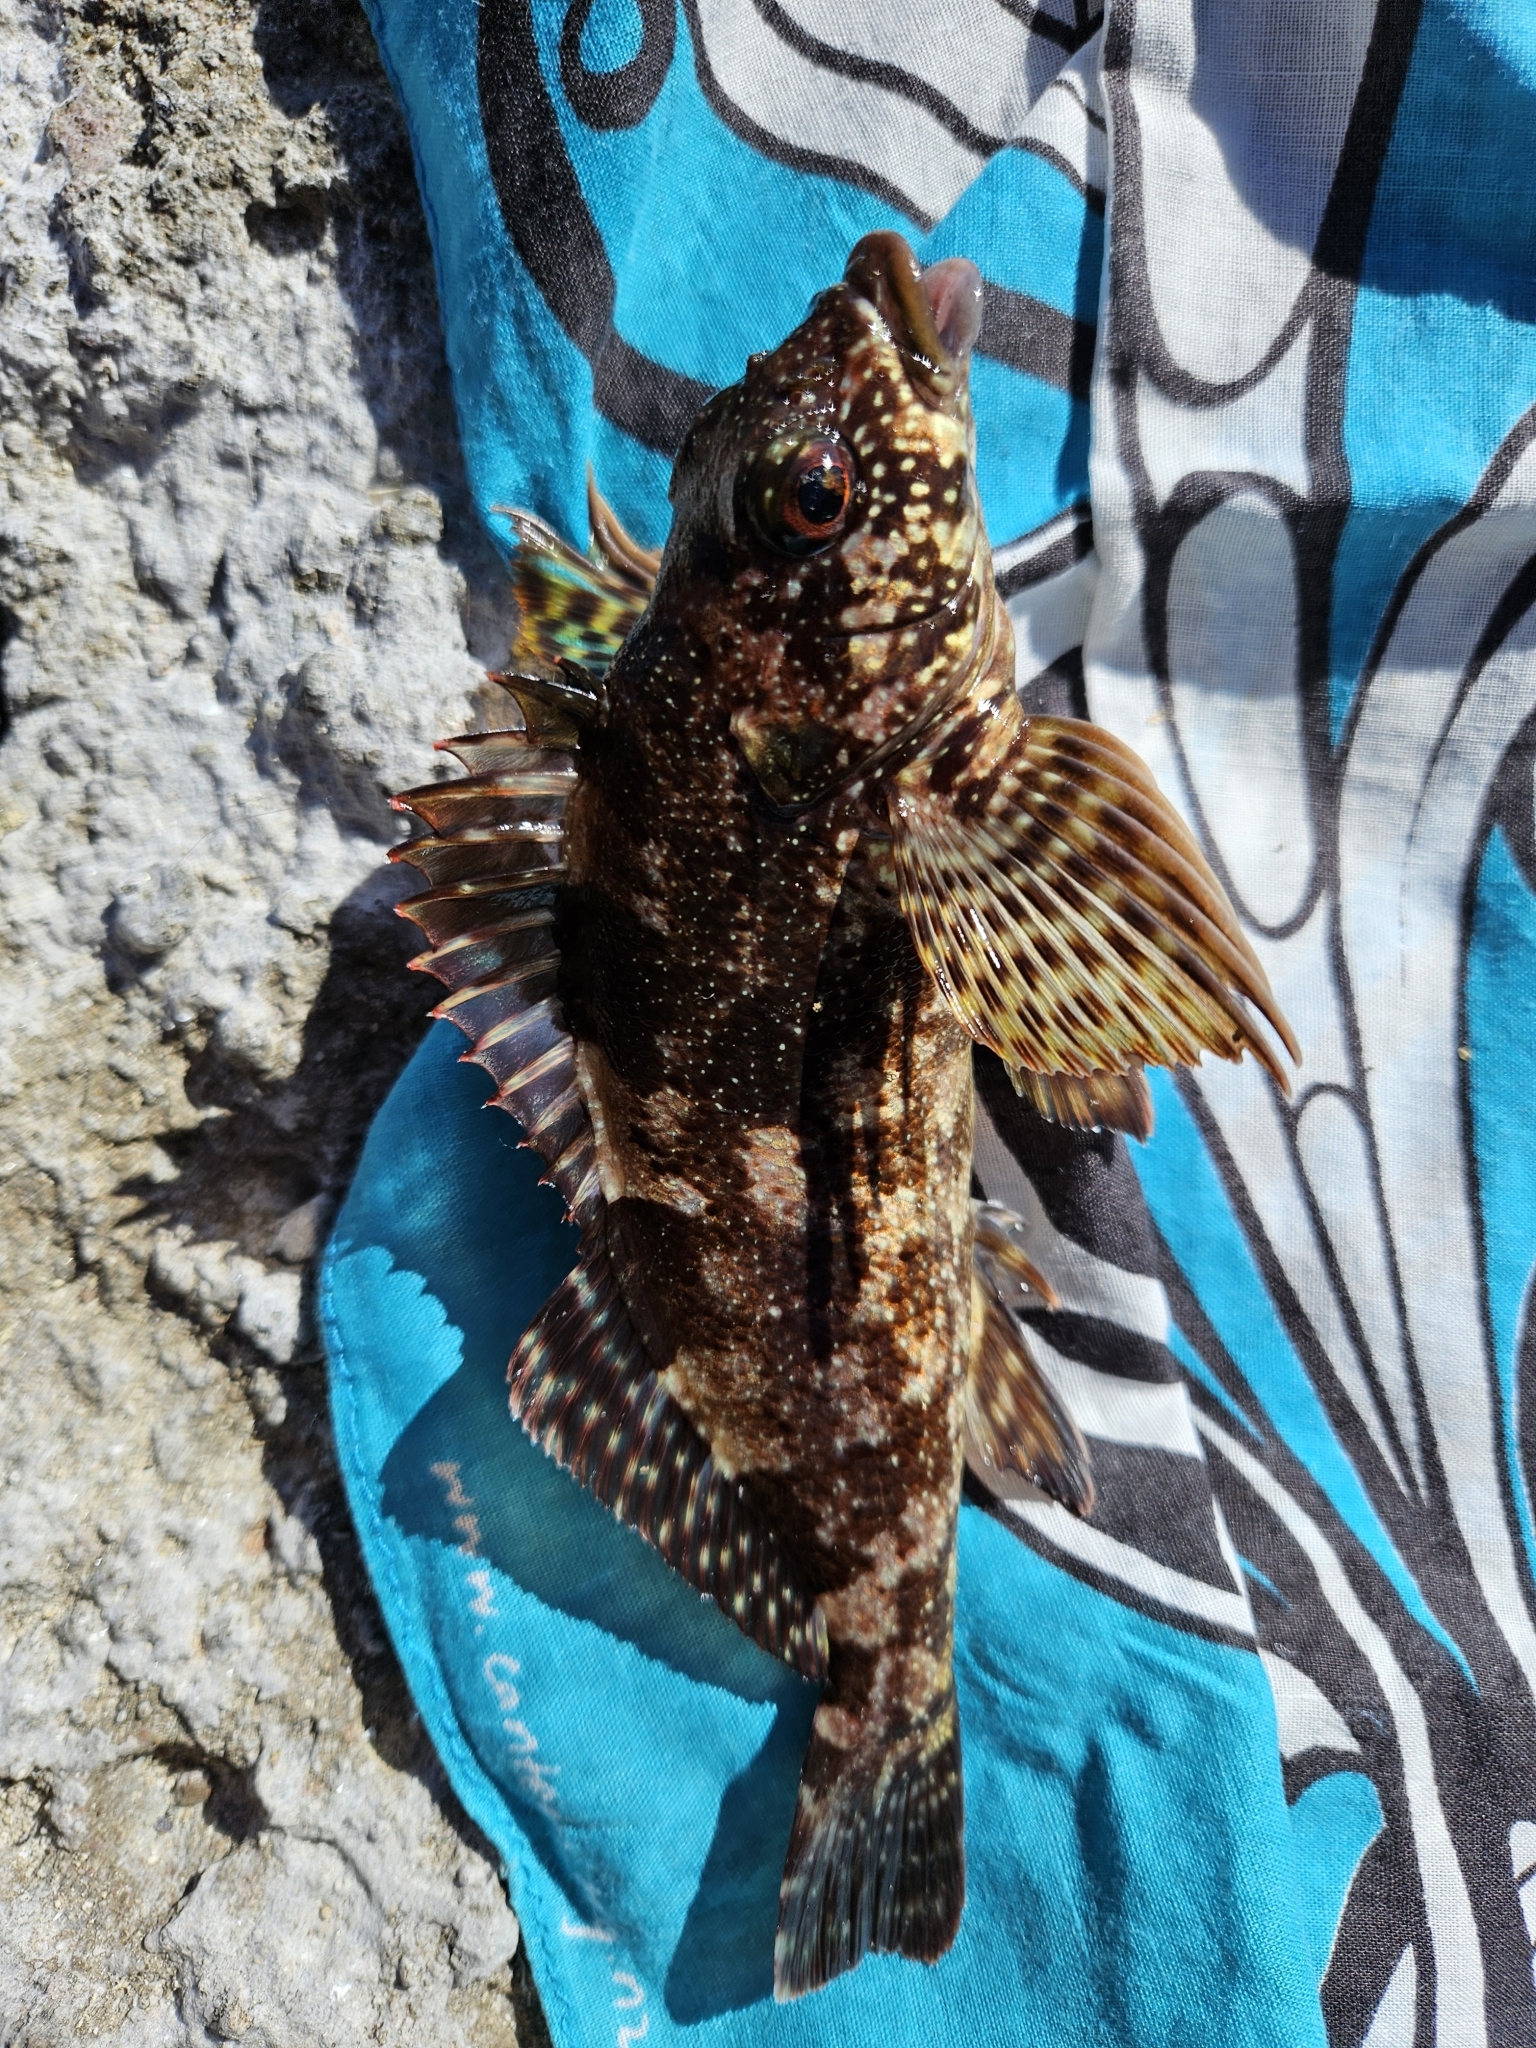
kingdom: Animalia
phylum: Chordata
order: Perciformes
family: Chironemidae
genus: Chironemus
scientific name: Chironemus marmoratus
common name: Kelpfish
